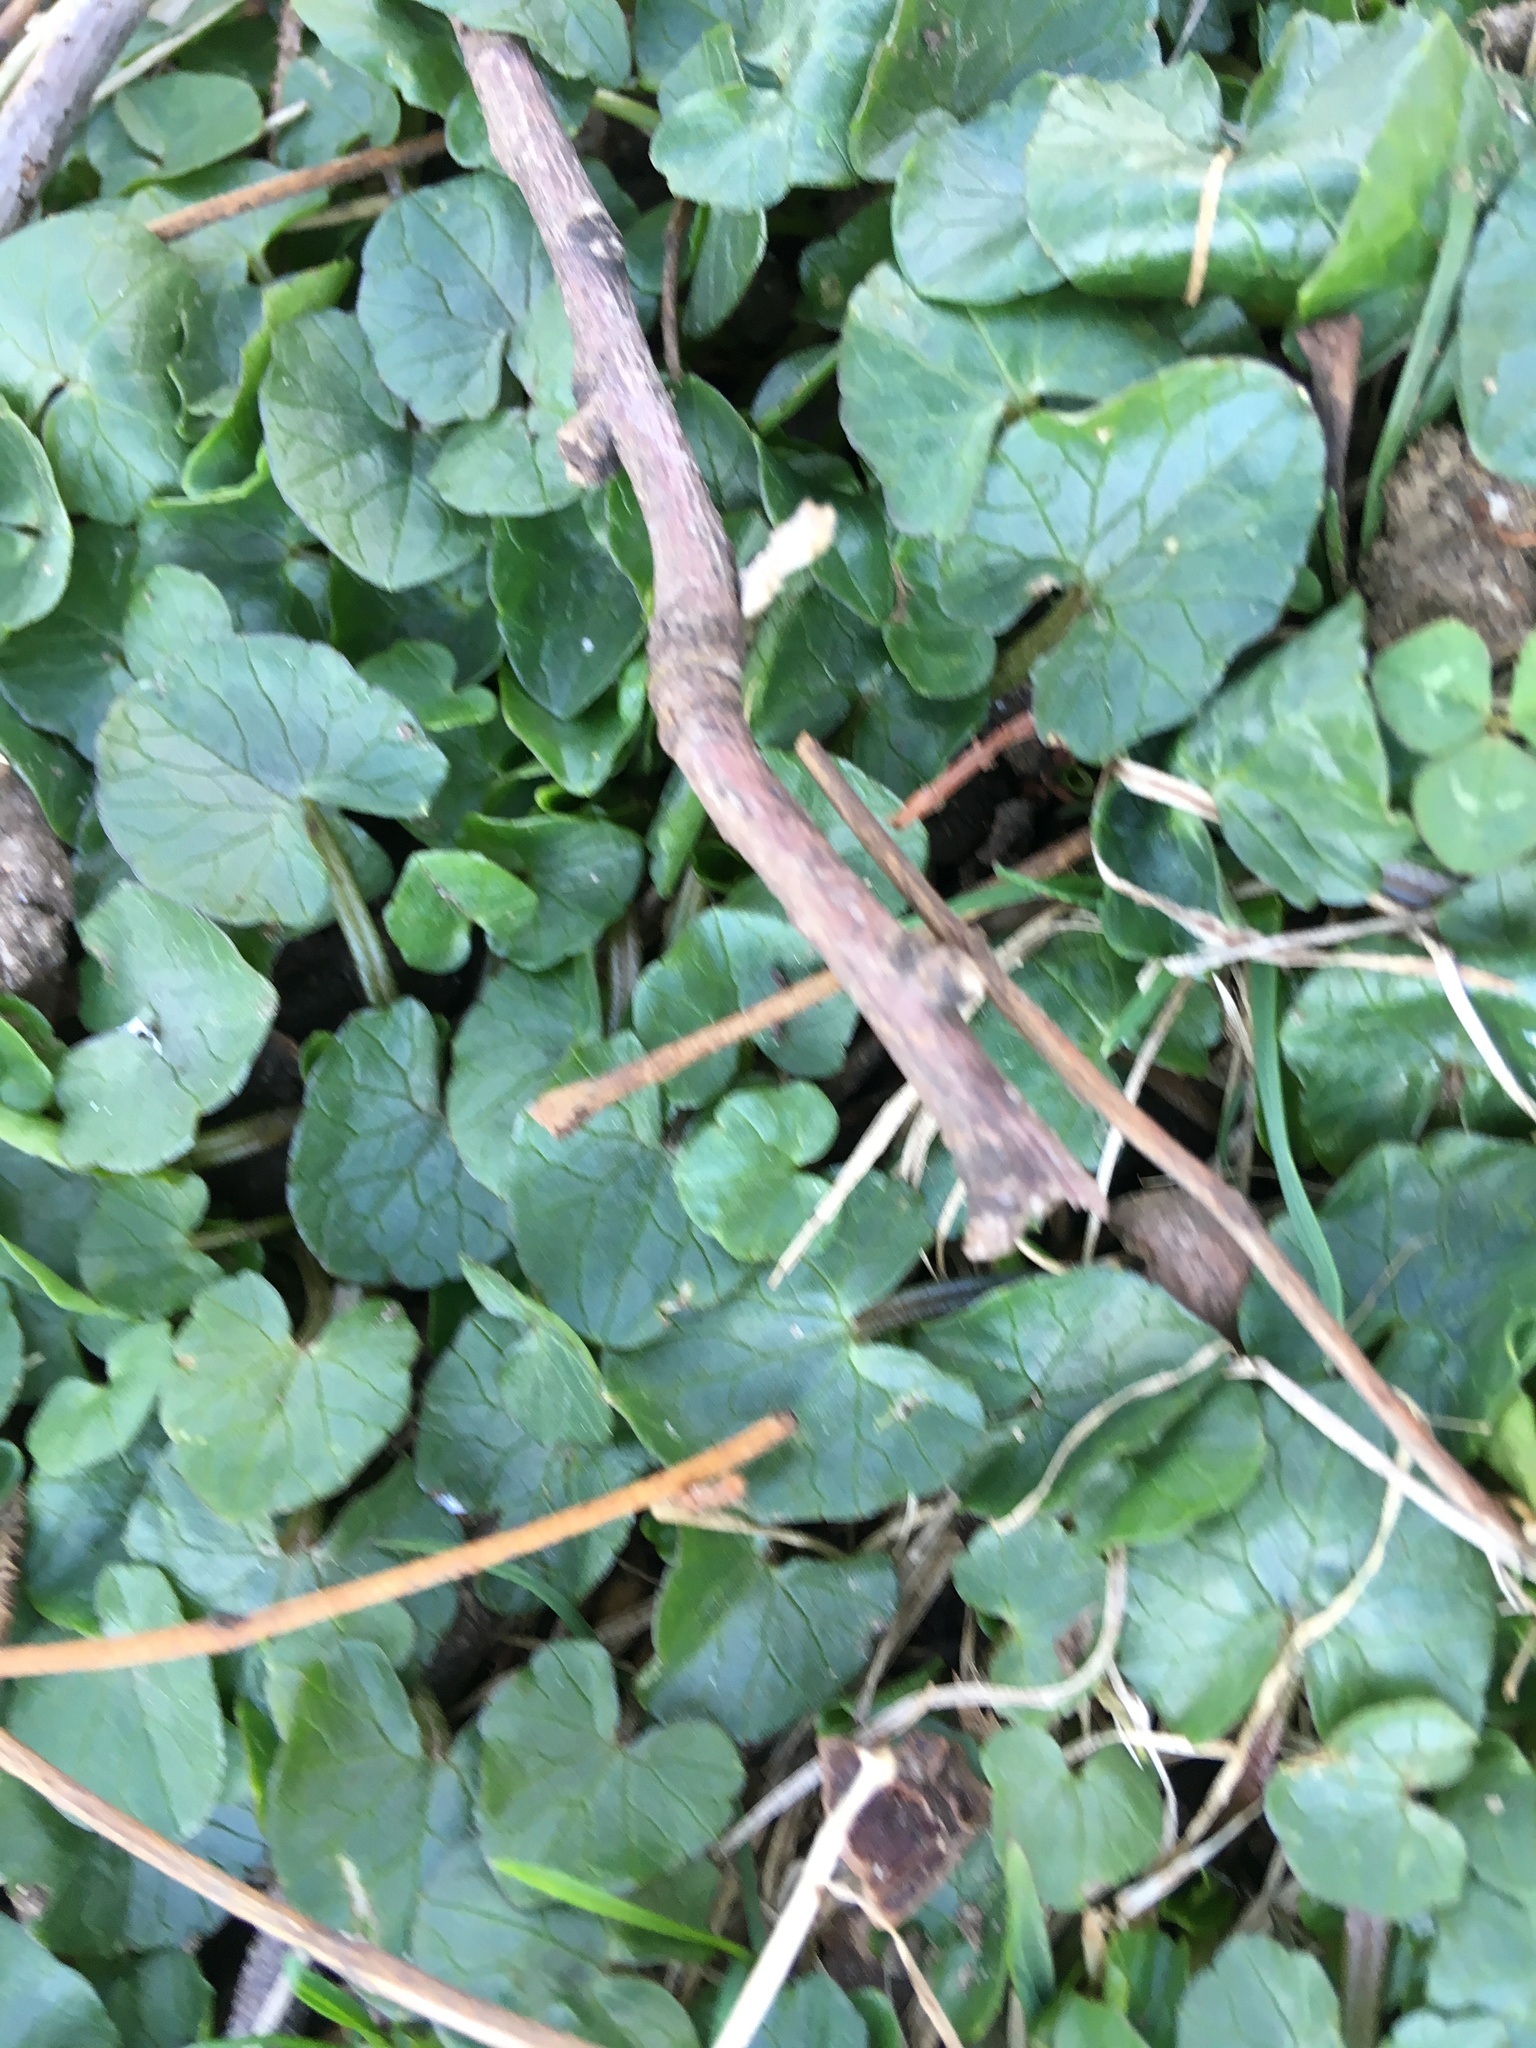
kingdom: Plantae
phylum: Tracheophyta
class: Magnoliopsida
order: Ranunculales
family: Ranunculaceae
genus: Ficaria
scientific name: Ficaria verna
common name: Lesser celandine
